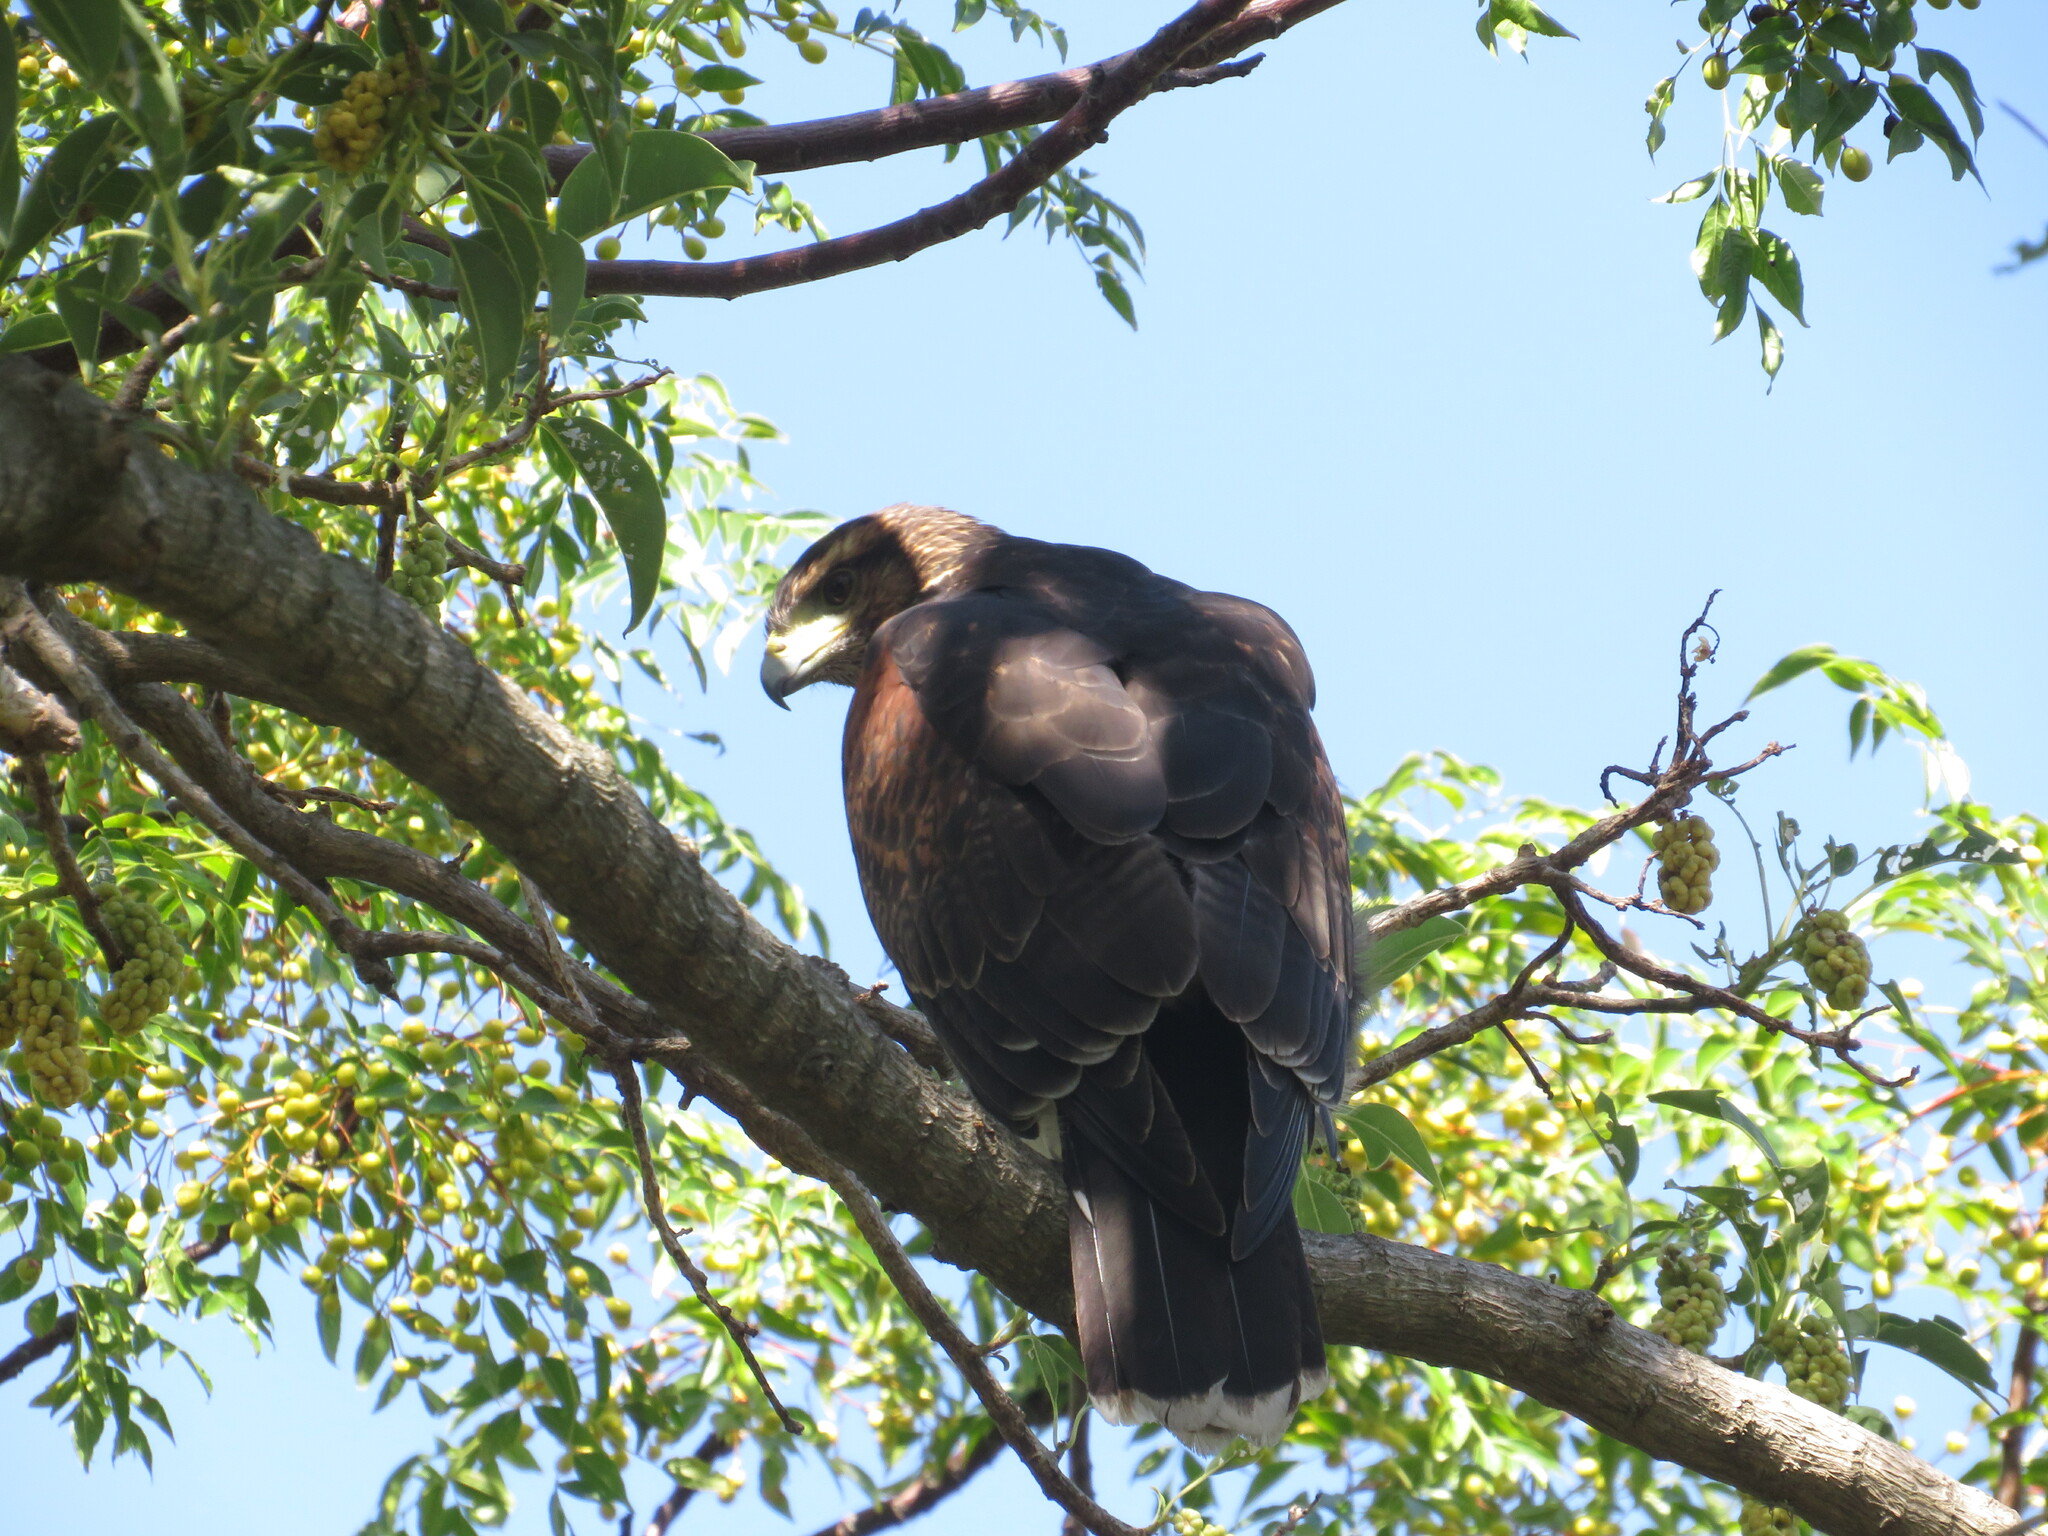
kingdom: Animalia
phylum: Chordata
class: Aves
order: Accipitriformes
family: Accipitridae
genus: Parabuteo
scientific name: Parabuteo unicinctus
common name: Harris's hawk
